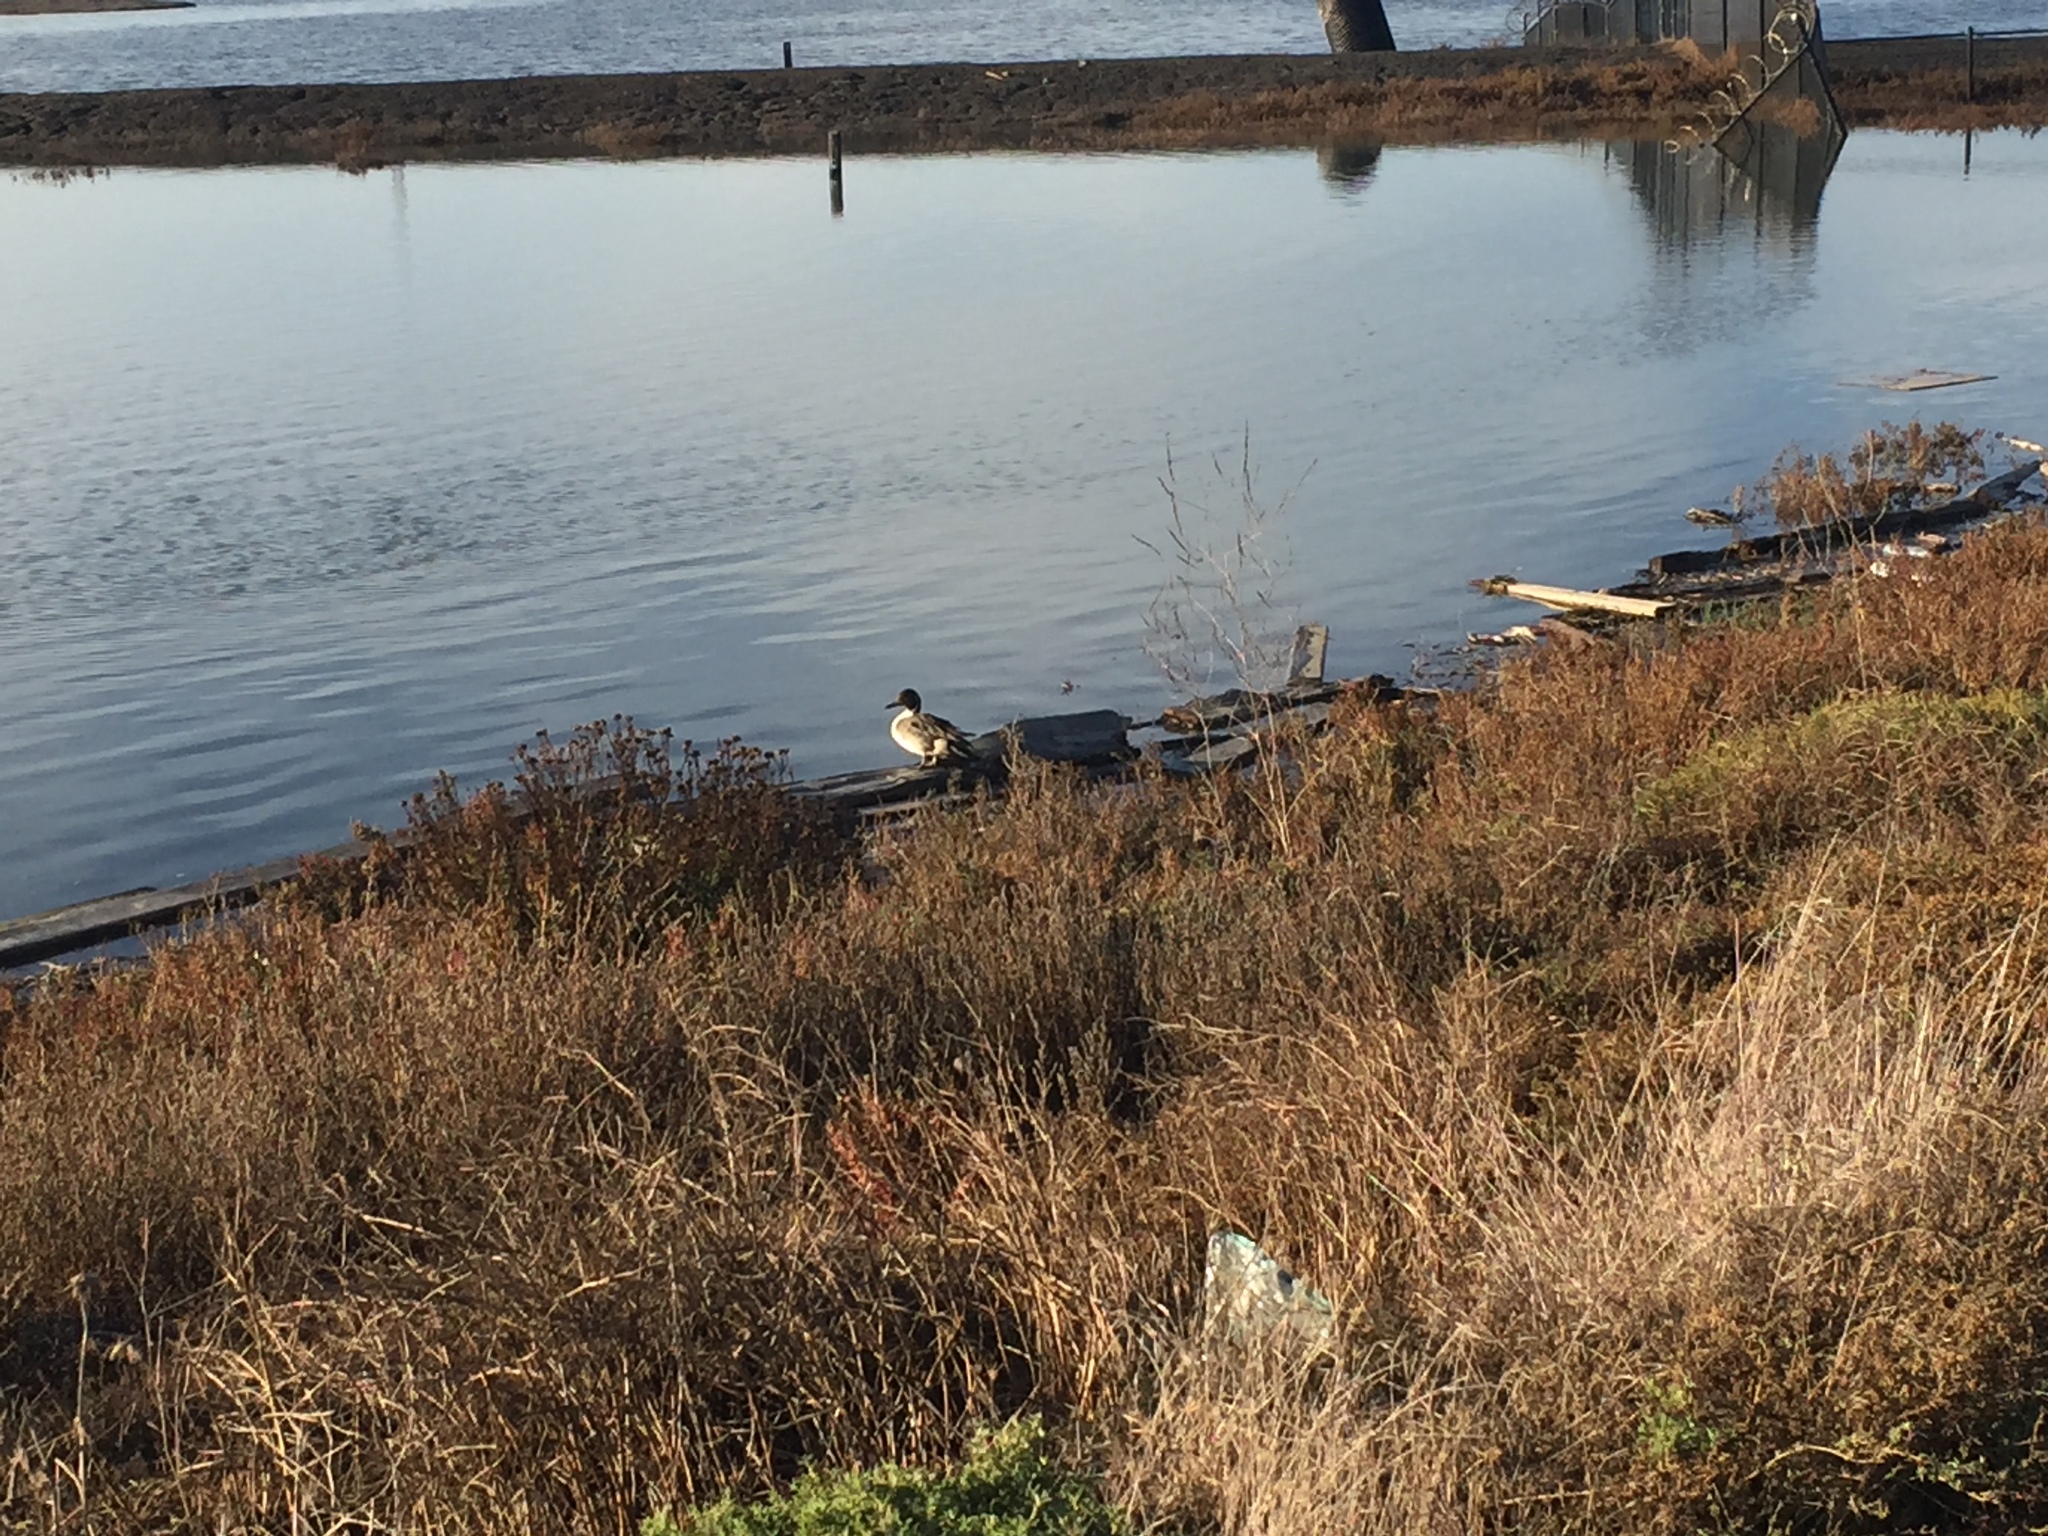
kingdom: Animalia
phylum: Chordata
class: Aves
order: Anseriformes
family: Anatidae
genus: Anas
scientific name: Anas acuta
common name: Northern pintail
